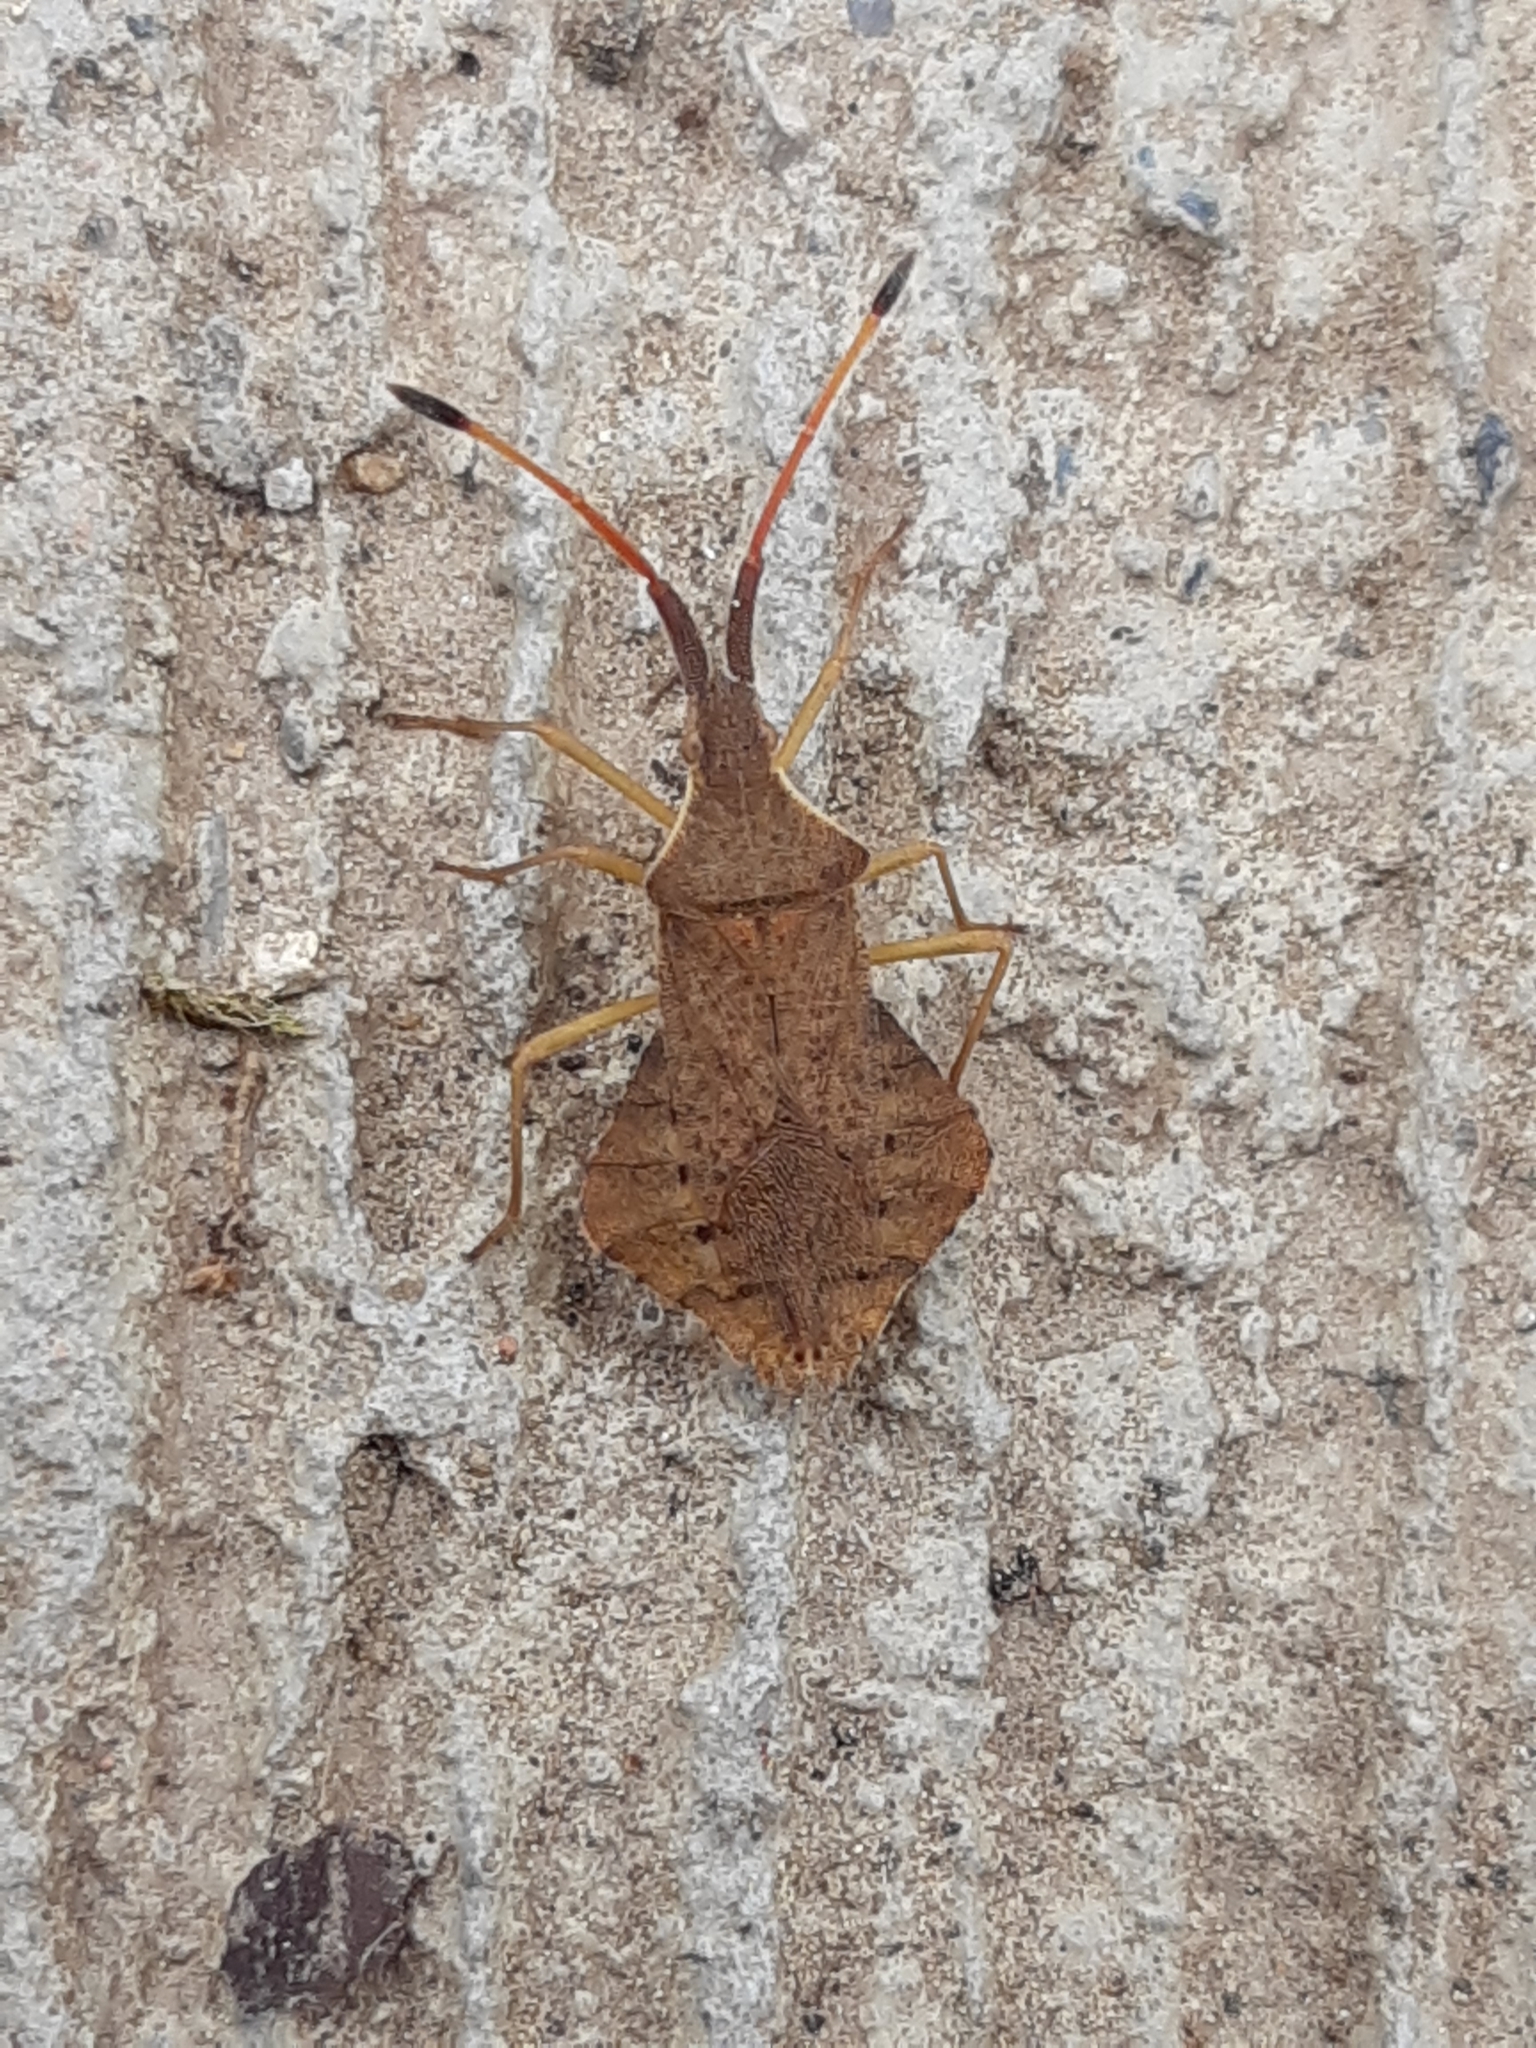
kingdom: Animalia
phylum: Arthropoda
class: Insecta
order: Hemiptera
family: Coreidae
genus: Syromastus
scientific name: Syromastus rhombeus
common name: Rhombic leatherbug
